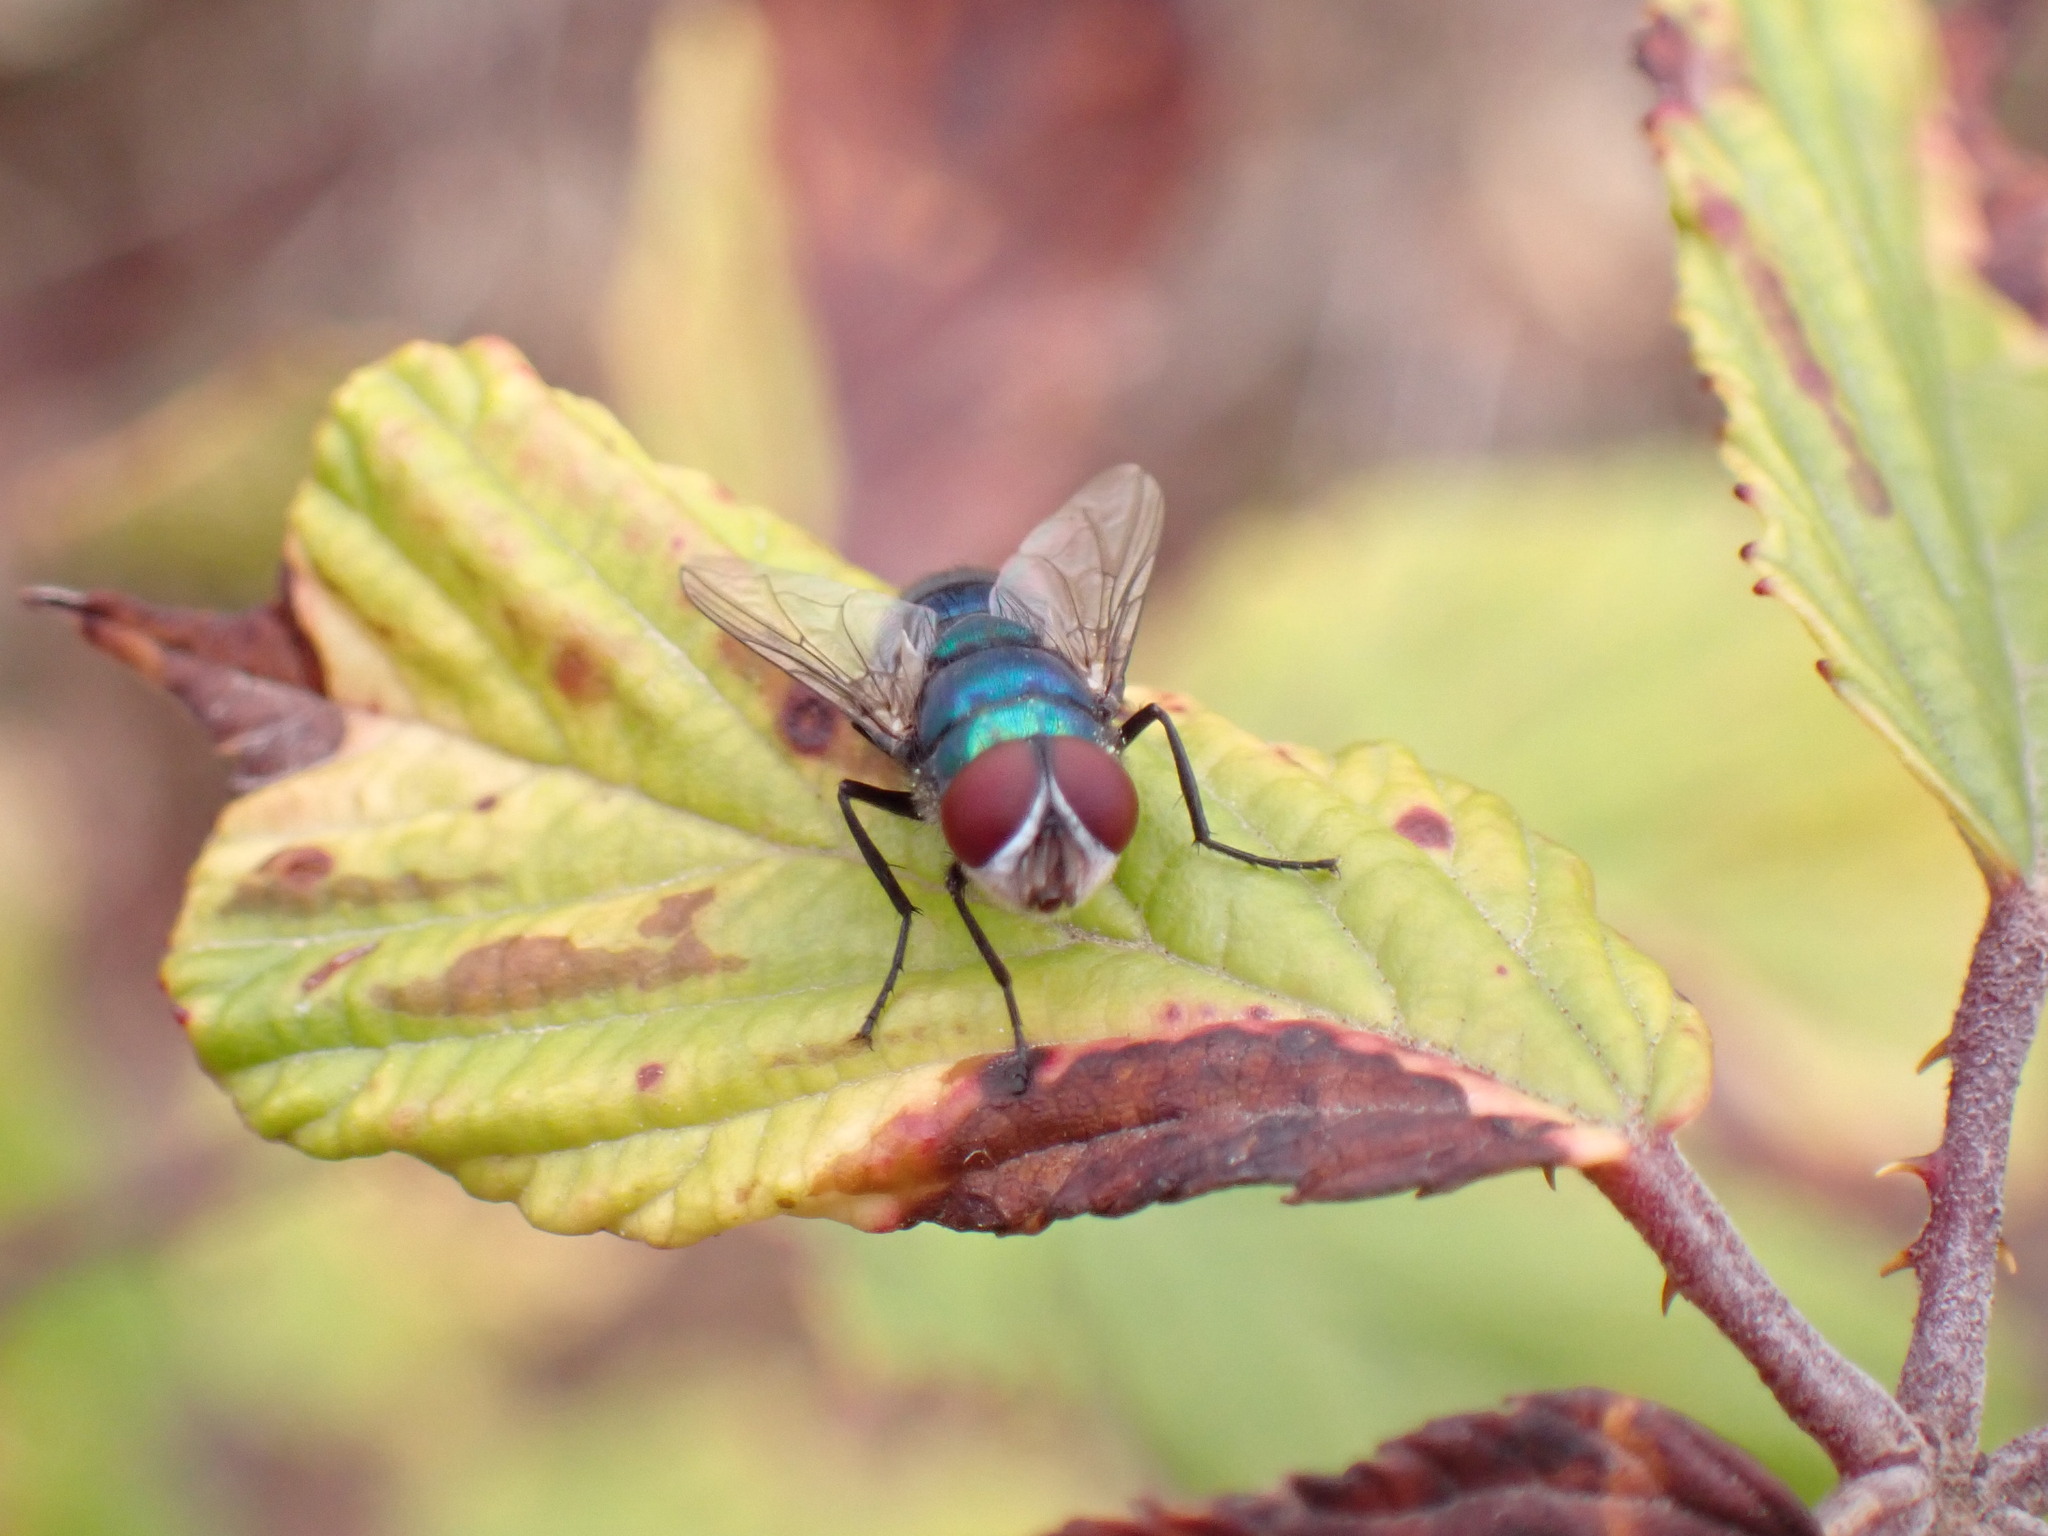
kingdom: Animalia
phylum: Arthropoda
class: Insecta
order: Diptera
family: Calliphoridae
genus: Chrysomya
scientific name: Chrysomya albiceps
